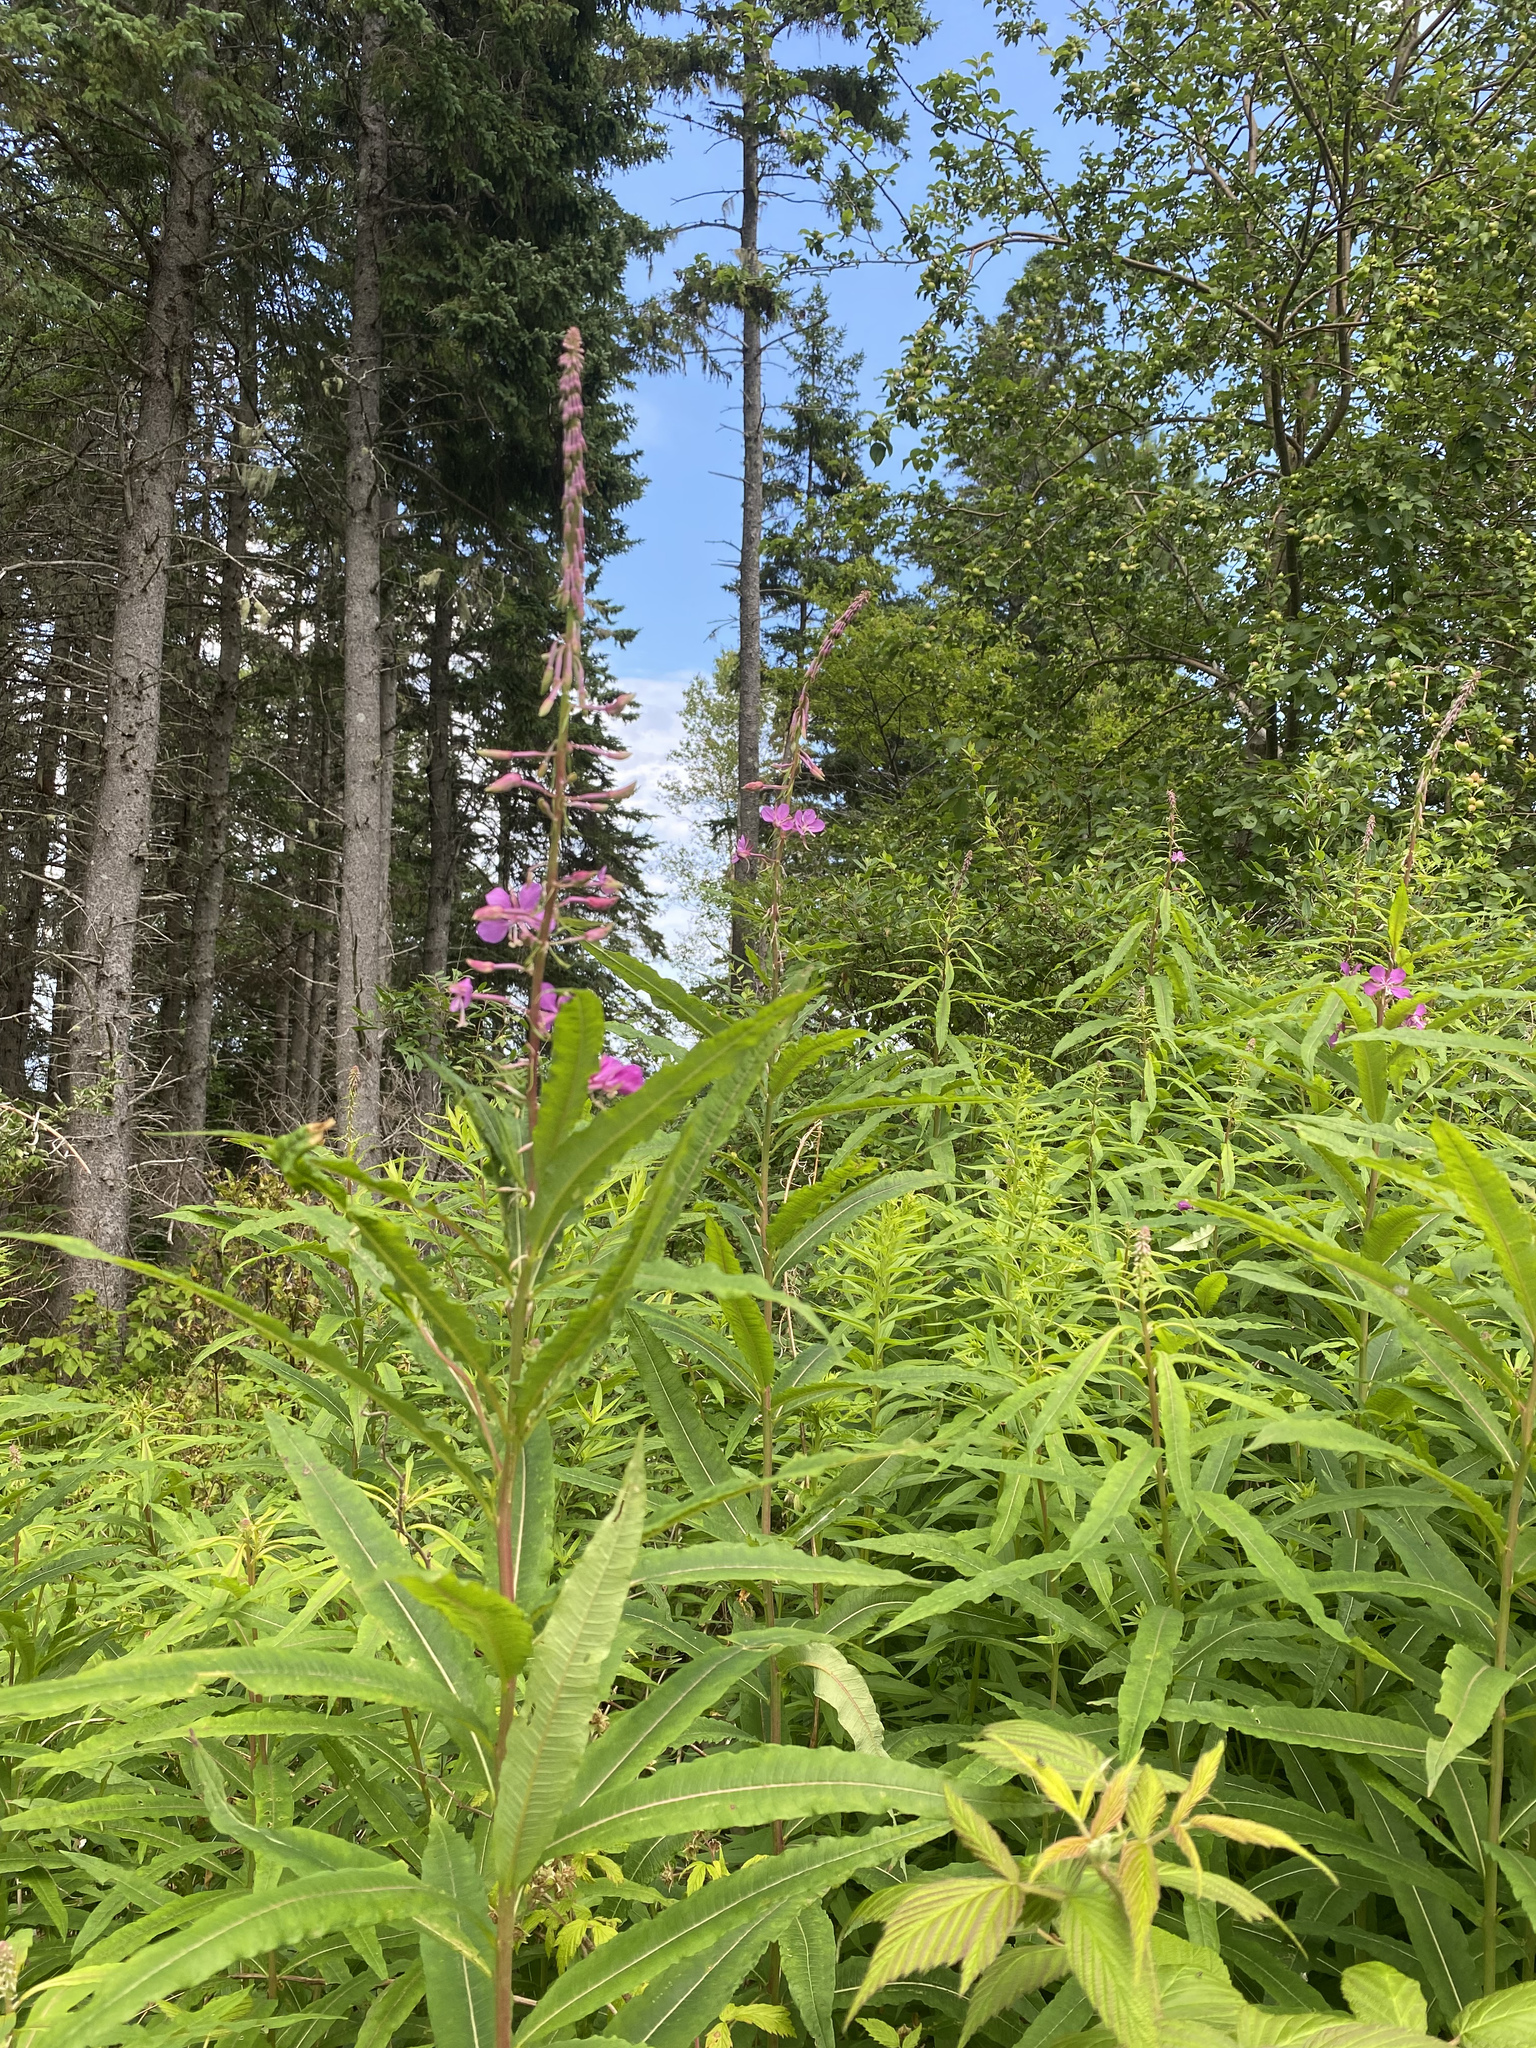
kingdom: Plantae
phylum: Tracheophyta
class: Magnoliopsida
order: Myrtales
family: Onagraceae
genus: Chamaenerion
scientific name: Chamaenerion angustifolium
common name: Fireweed
